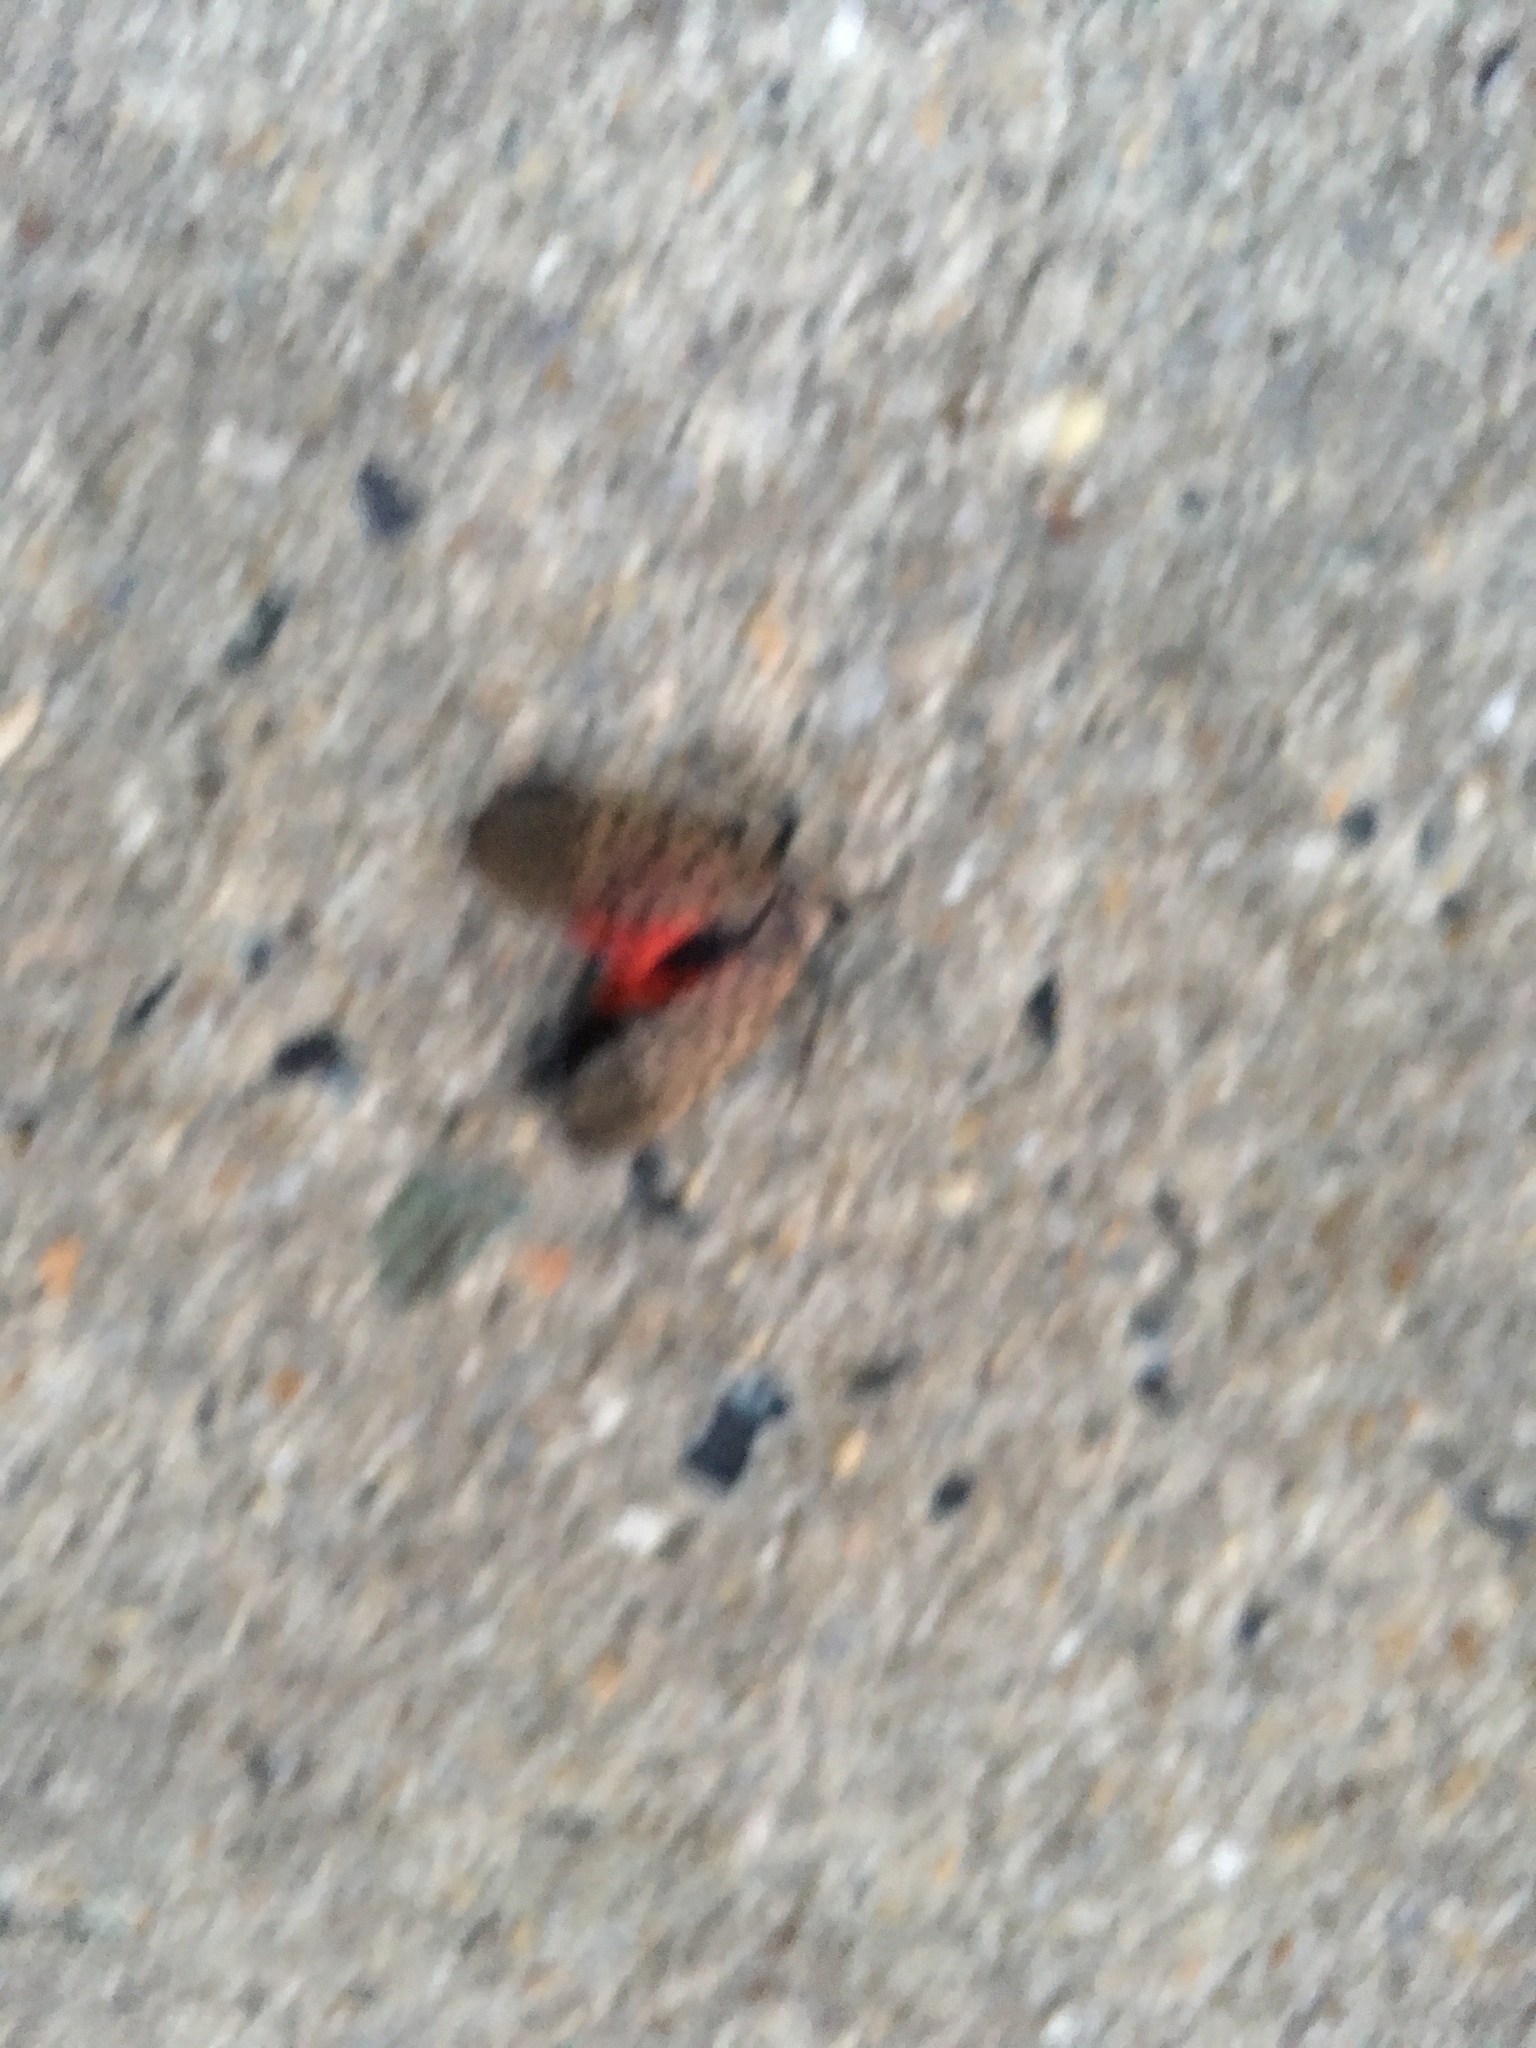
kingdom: Animalia
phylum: Arthropoda
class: Insecta
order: Hemiptera
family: Fulgoridae
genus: Lycorma
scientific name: Lycorma delicatula
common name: Spotted lanternfly
